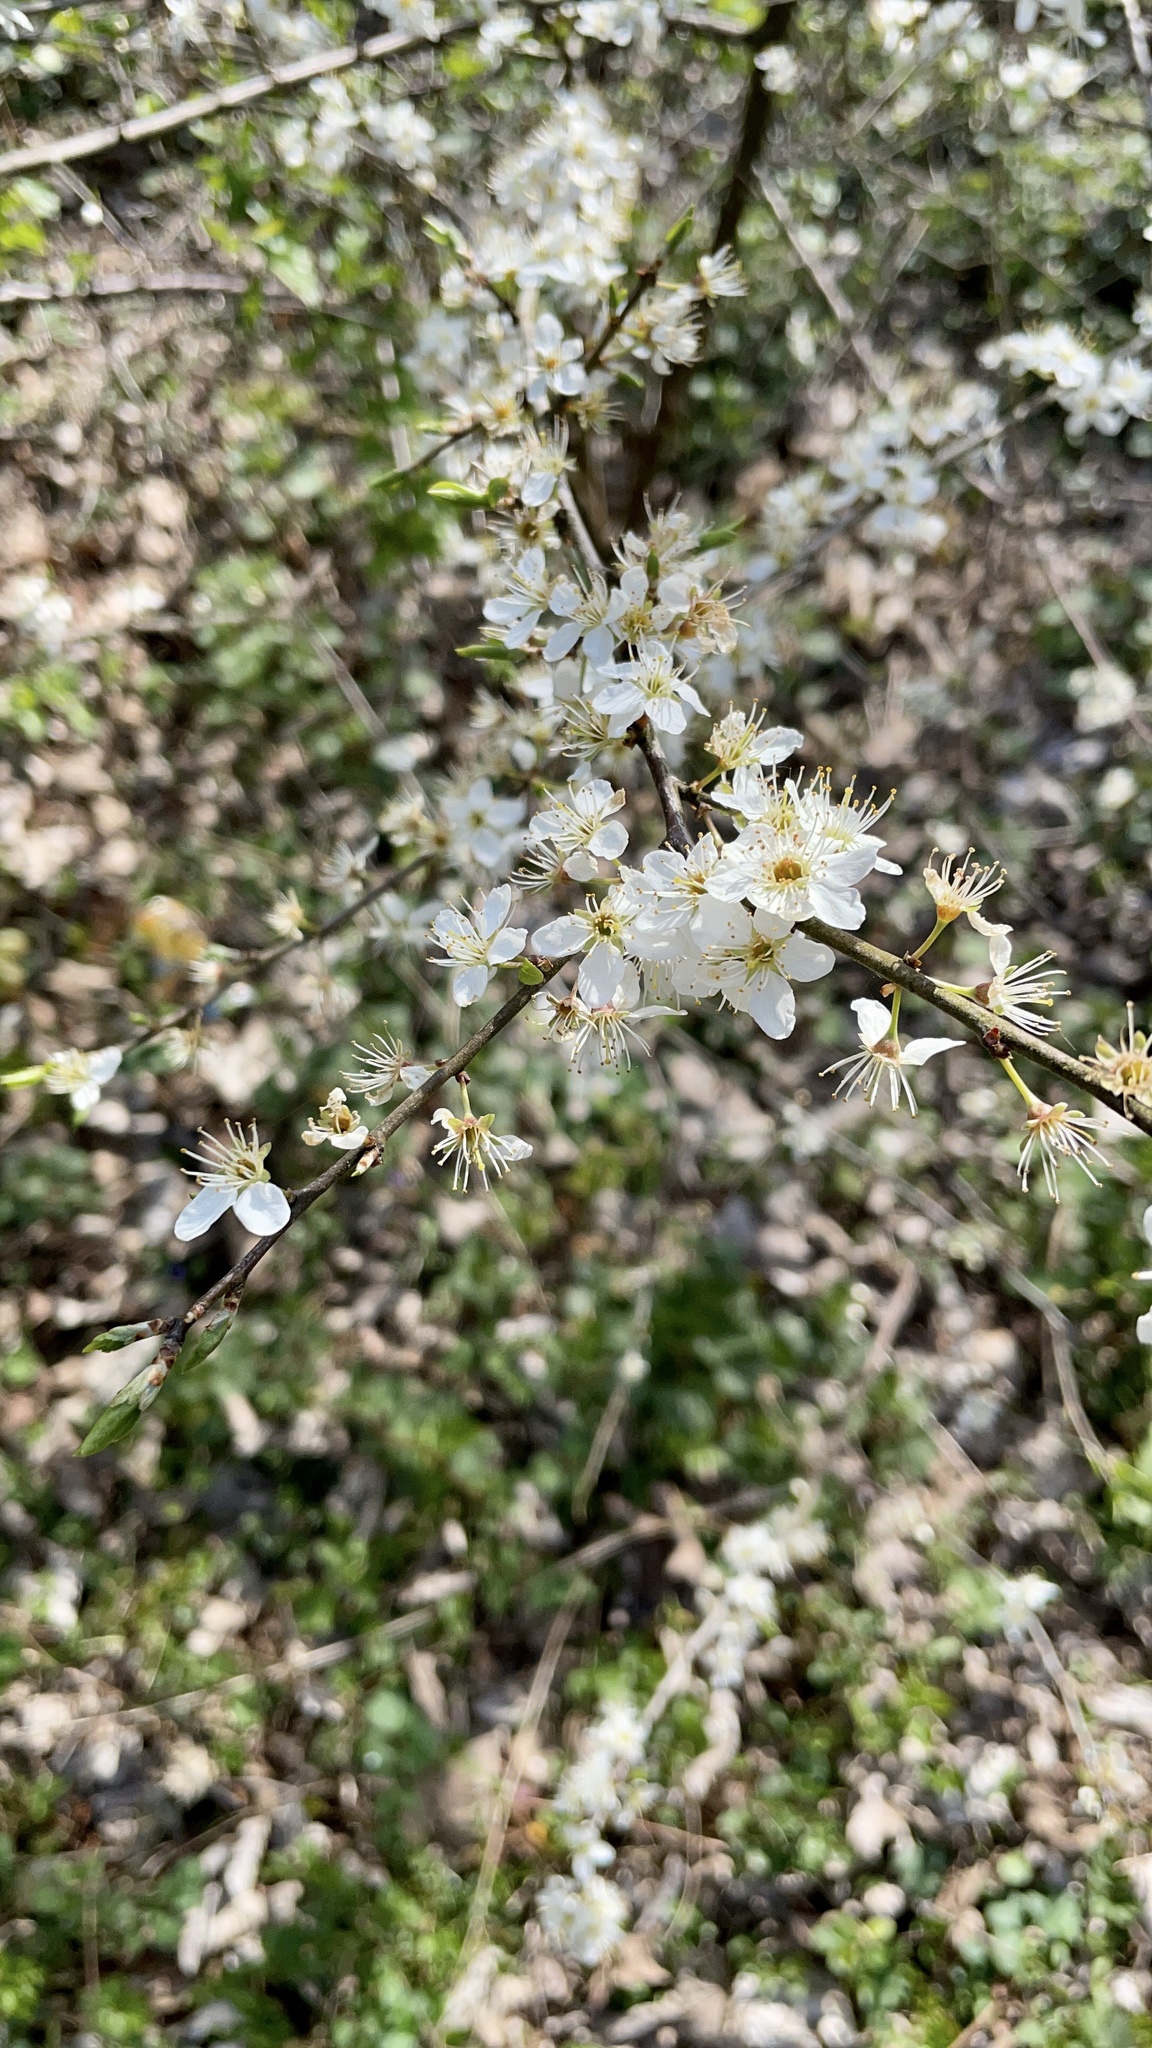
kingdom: Plantae
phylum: Tracheophyta
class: Magnoliopsida
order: Rosales
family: Rosaceae
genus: Prunus
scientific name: Prunus spinosa
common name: Blackthorn
